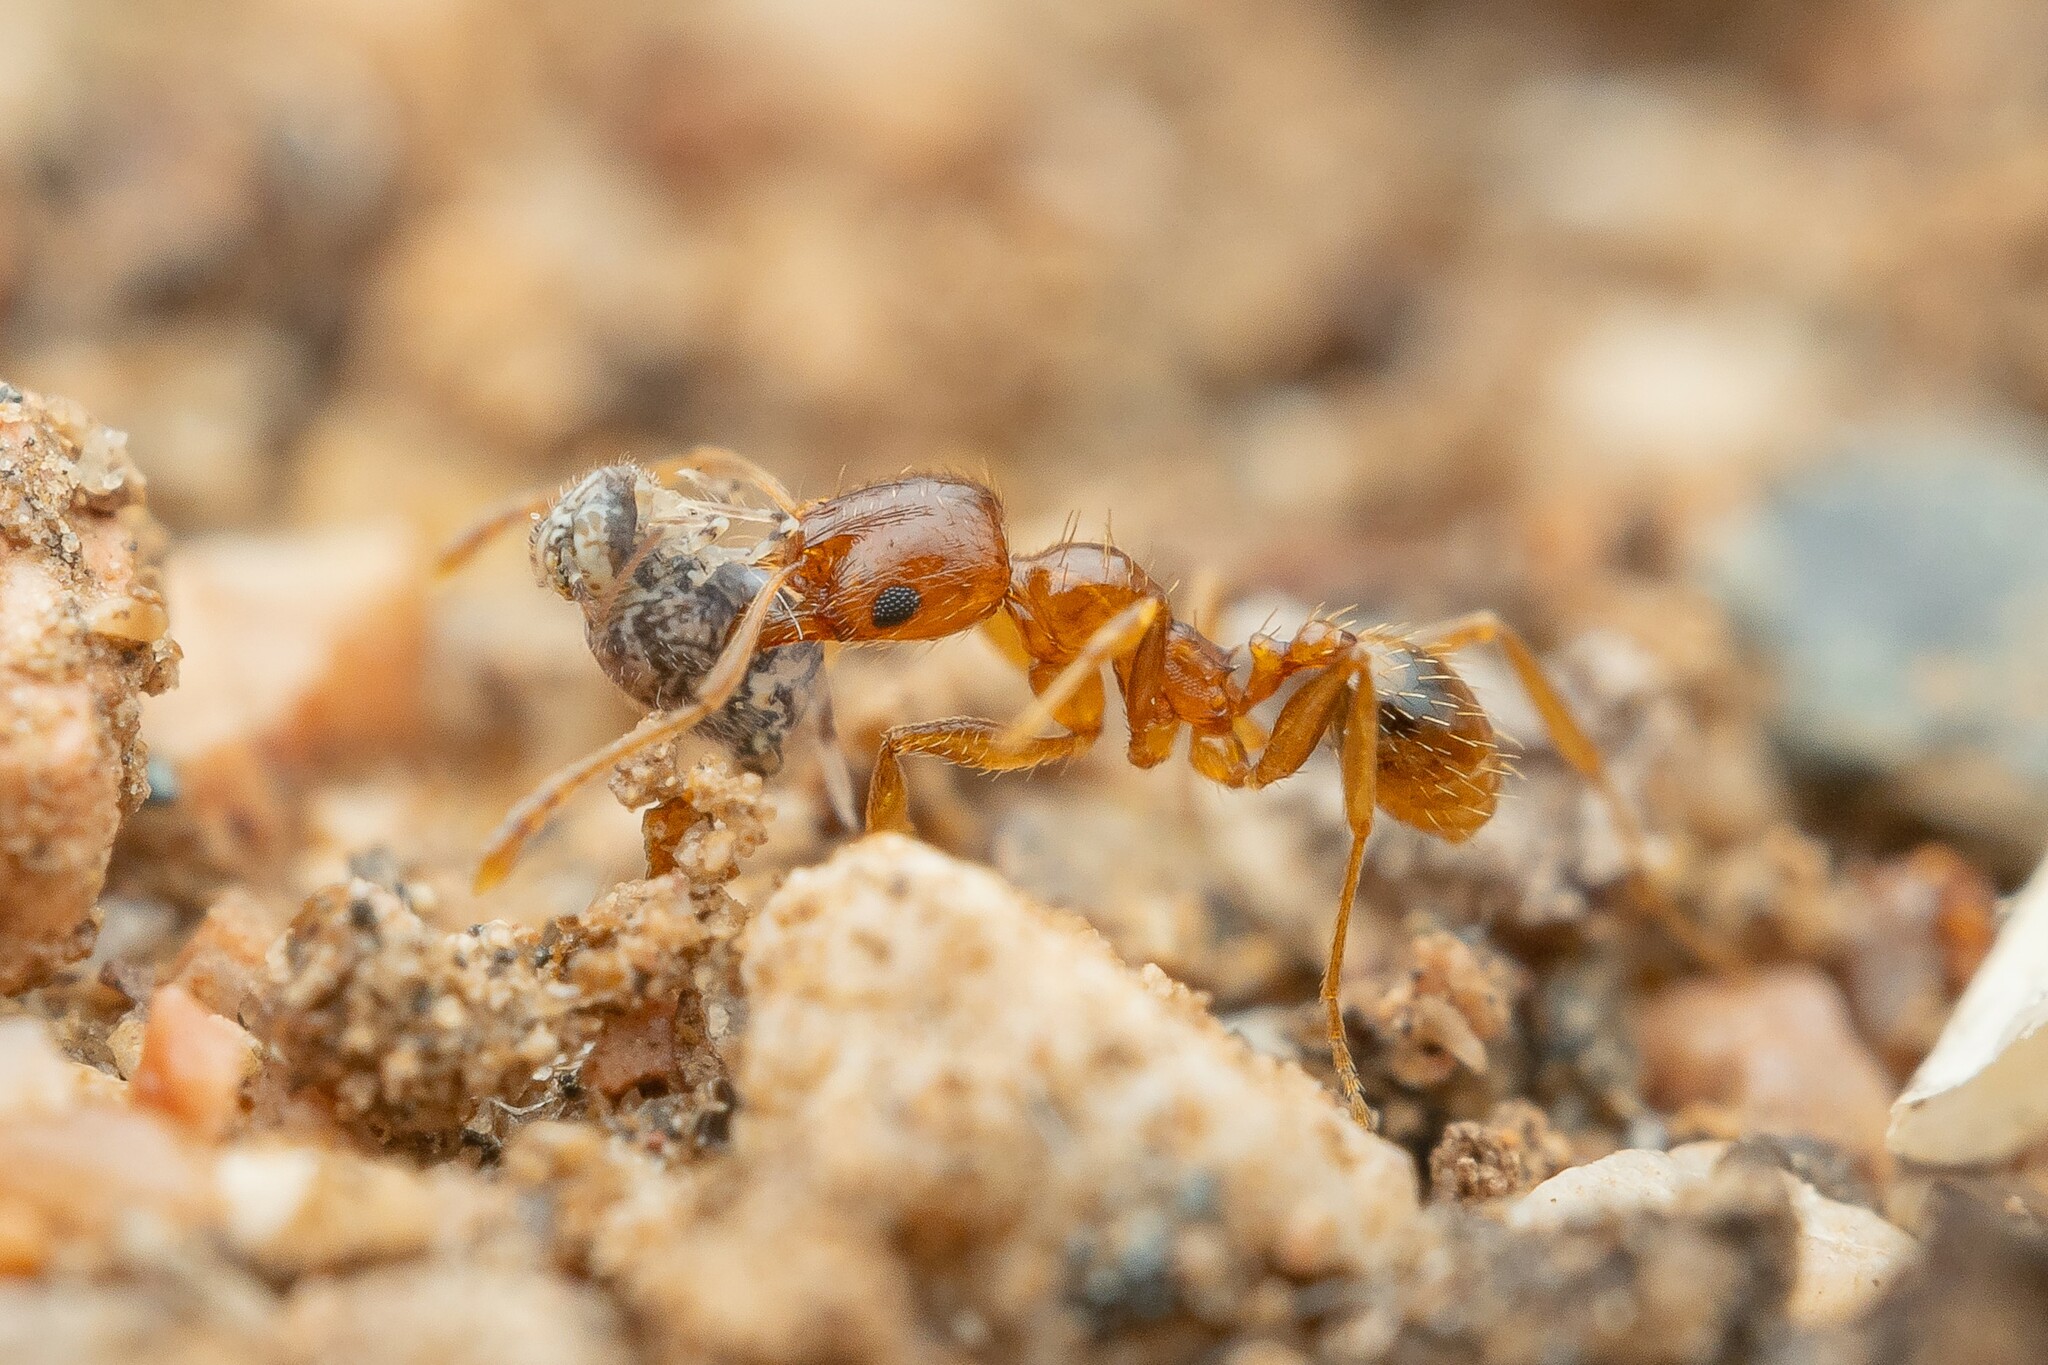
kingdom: Animalia
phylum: Arthropoda
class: Insecta
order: Hymenoptera
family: Formicidae
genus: Pheidole
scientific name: Pheidole spadonia
